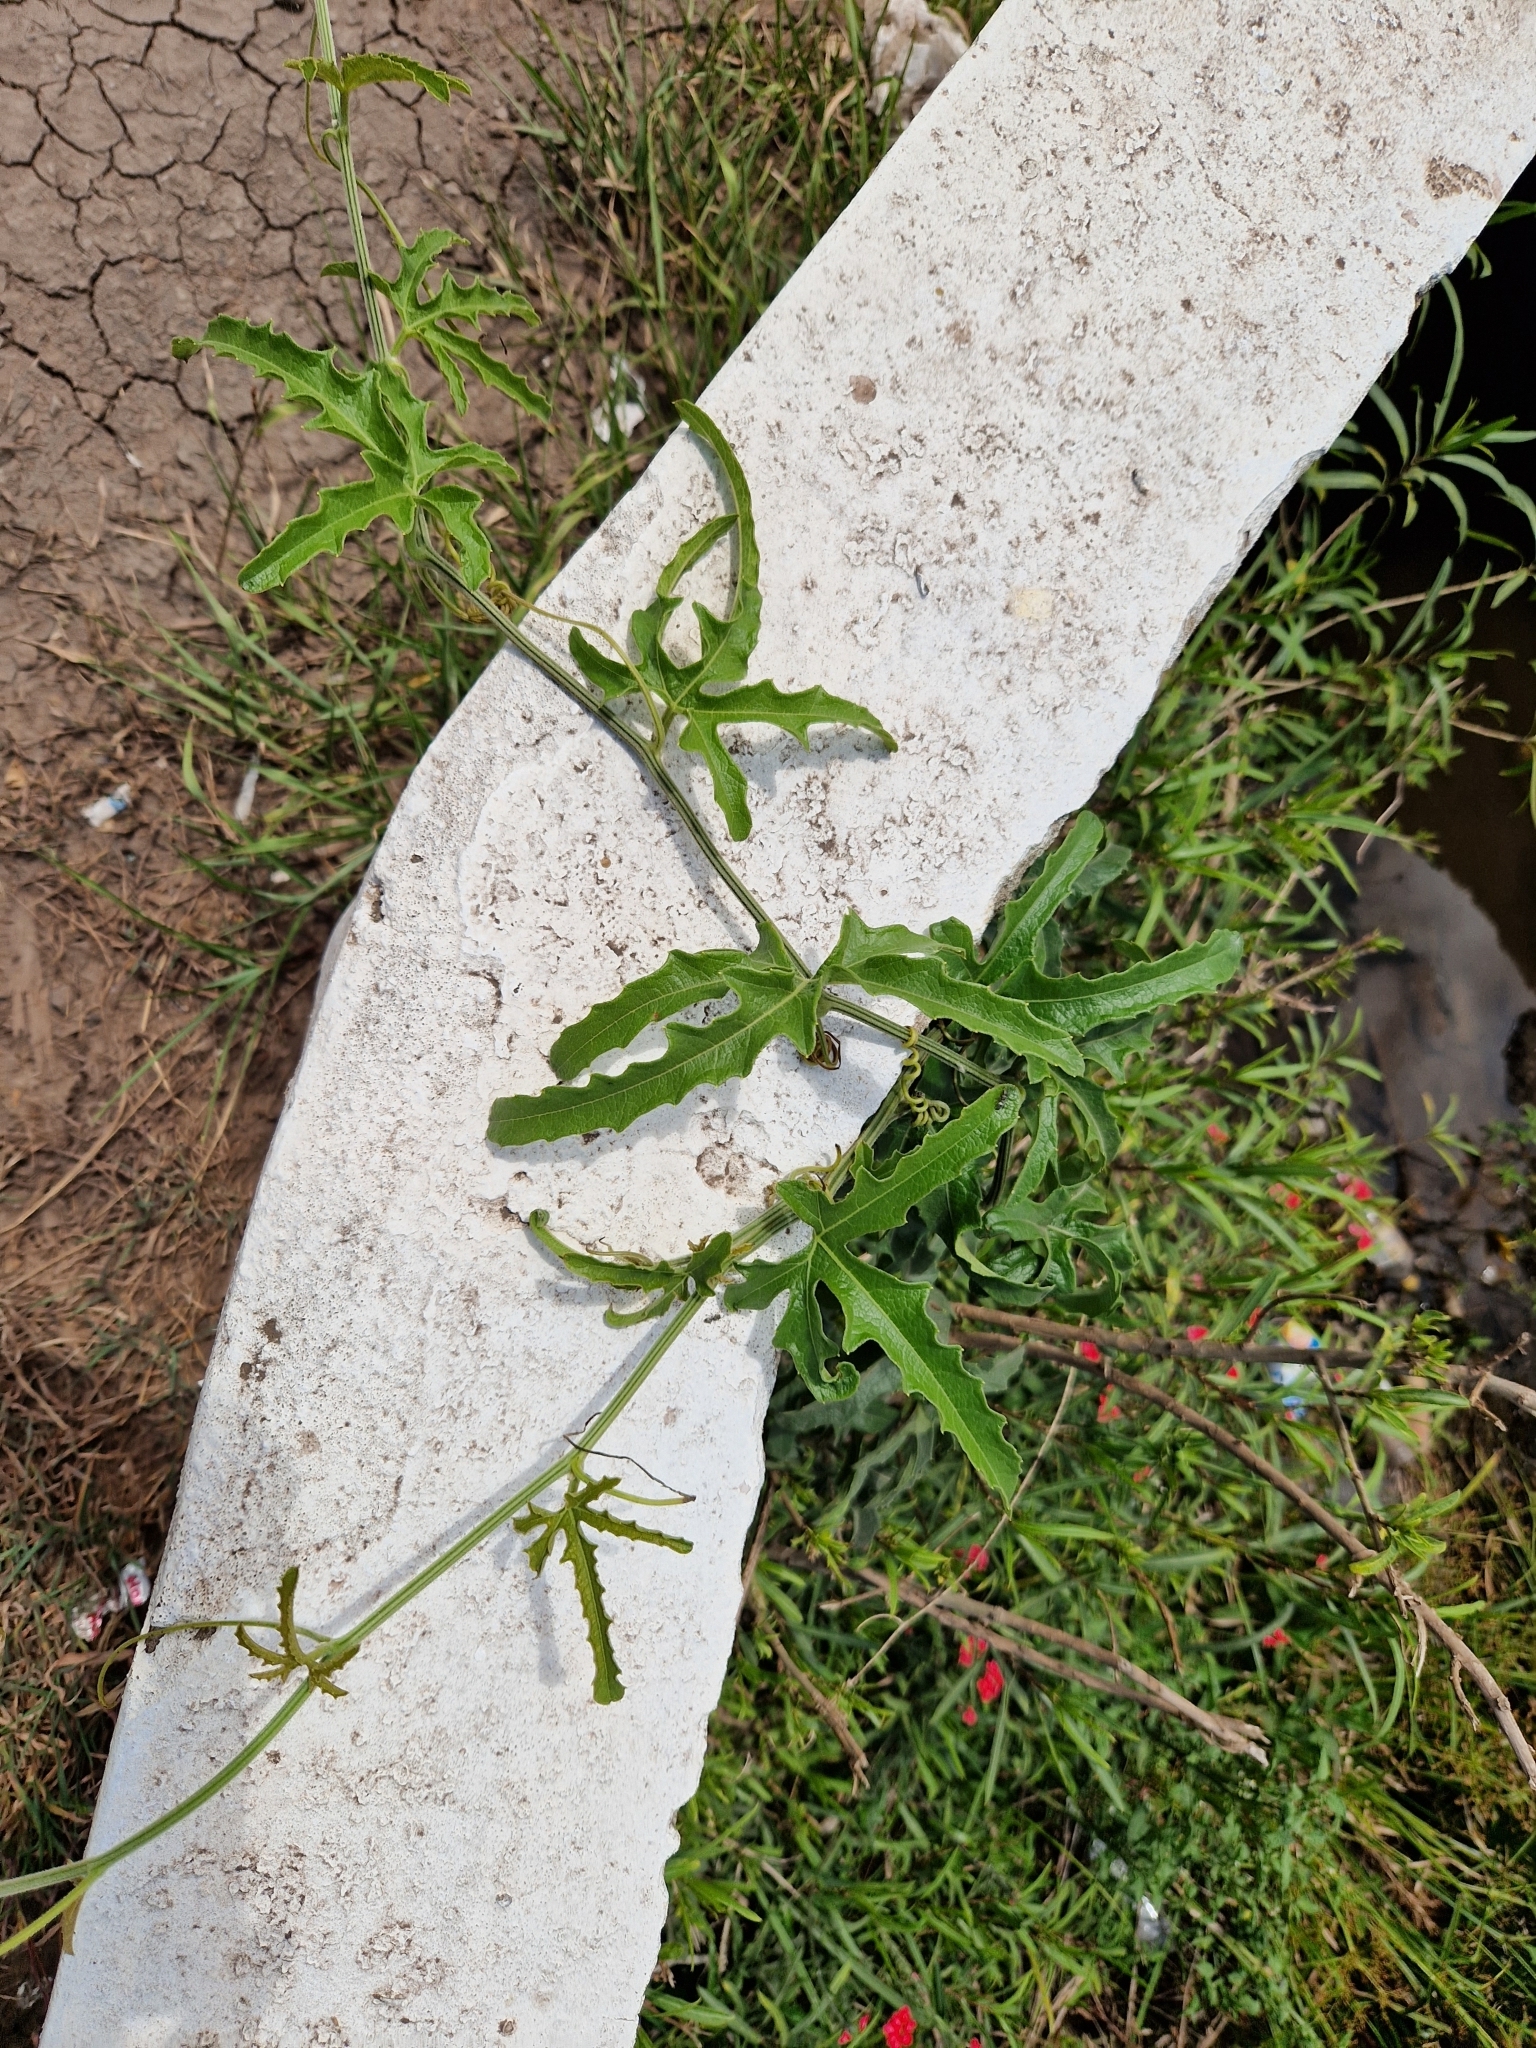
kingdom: Plantae
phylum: Tracheophyta
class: Magnoliopsida
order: Cucurbitales
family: Cucurbitaceae
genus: Cucurbitella
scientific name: Cucurbitella asperata
